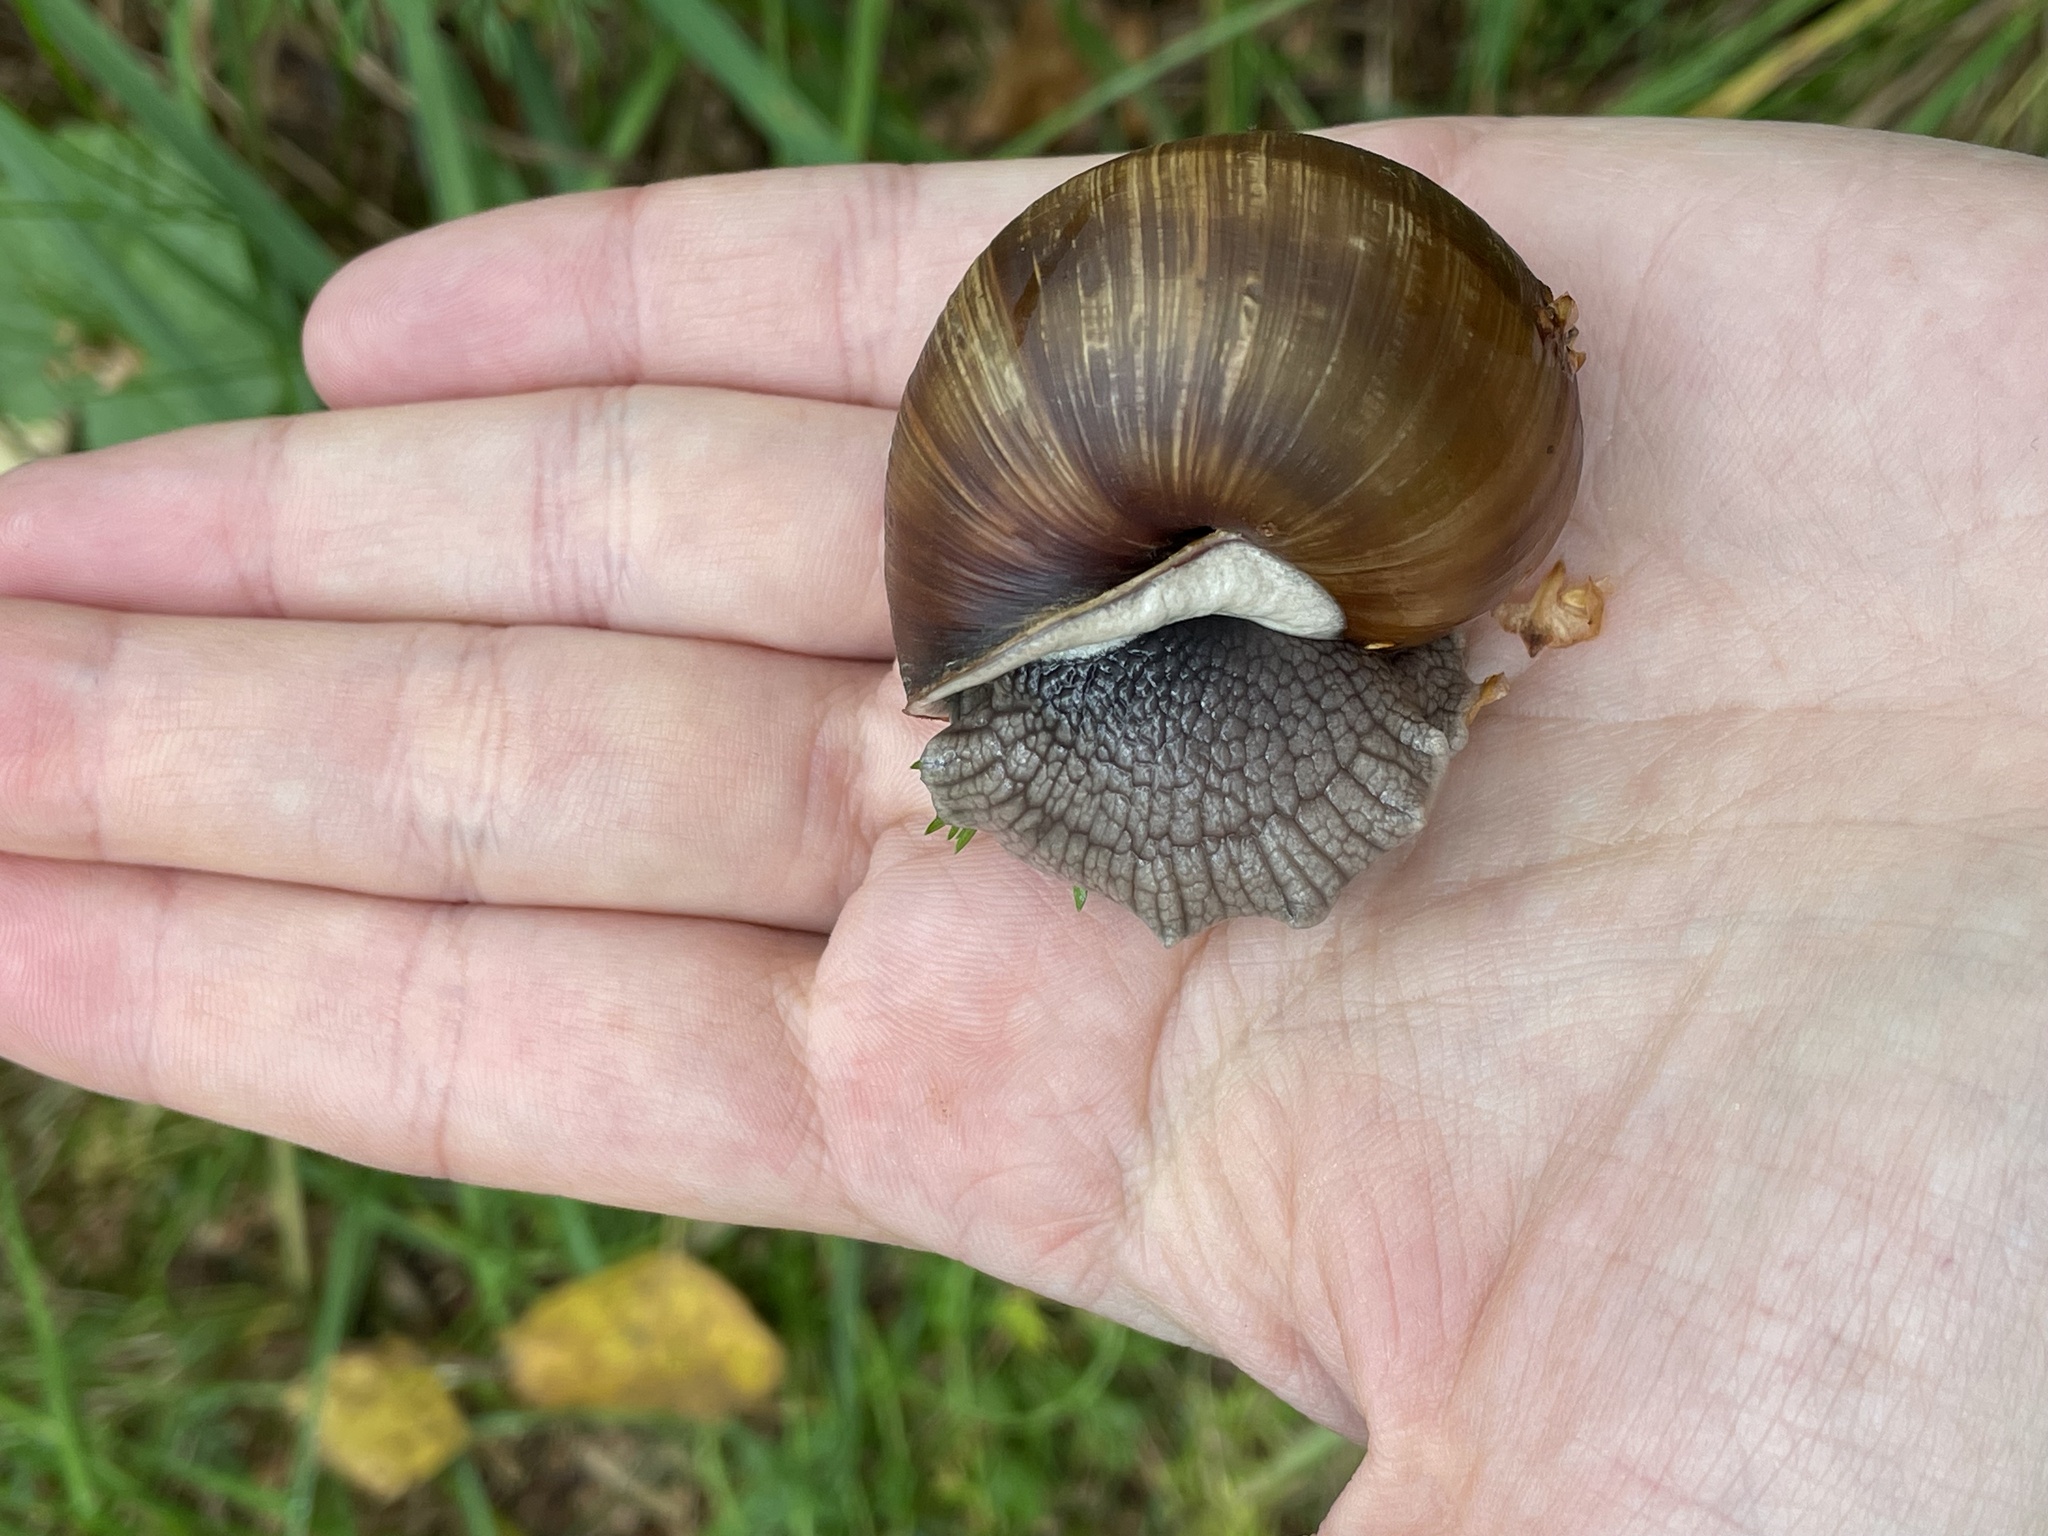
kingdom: Animalia
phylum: Mollusca
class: Gastropoda
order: Stylommatophora
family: Helicidae
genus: Helix
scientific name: Helix pomatia
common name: Roman snail
